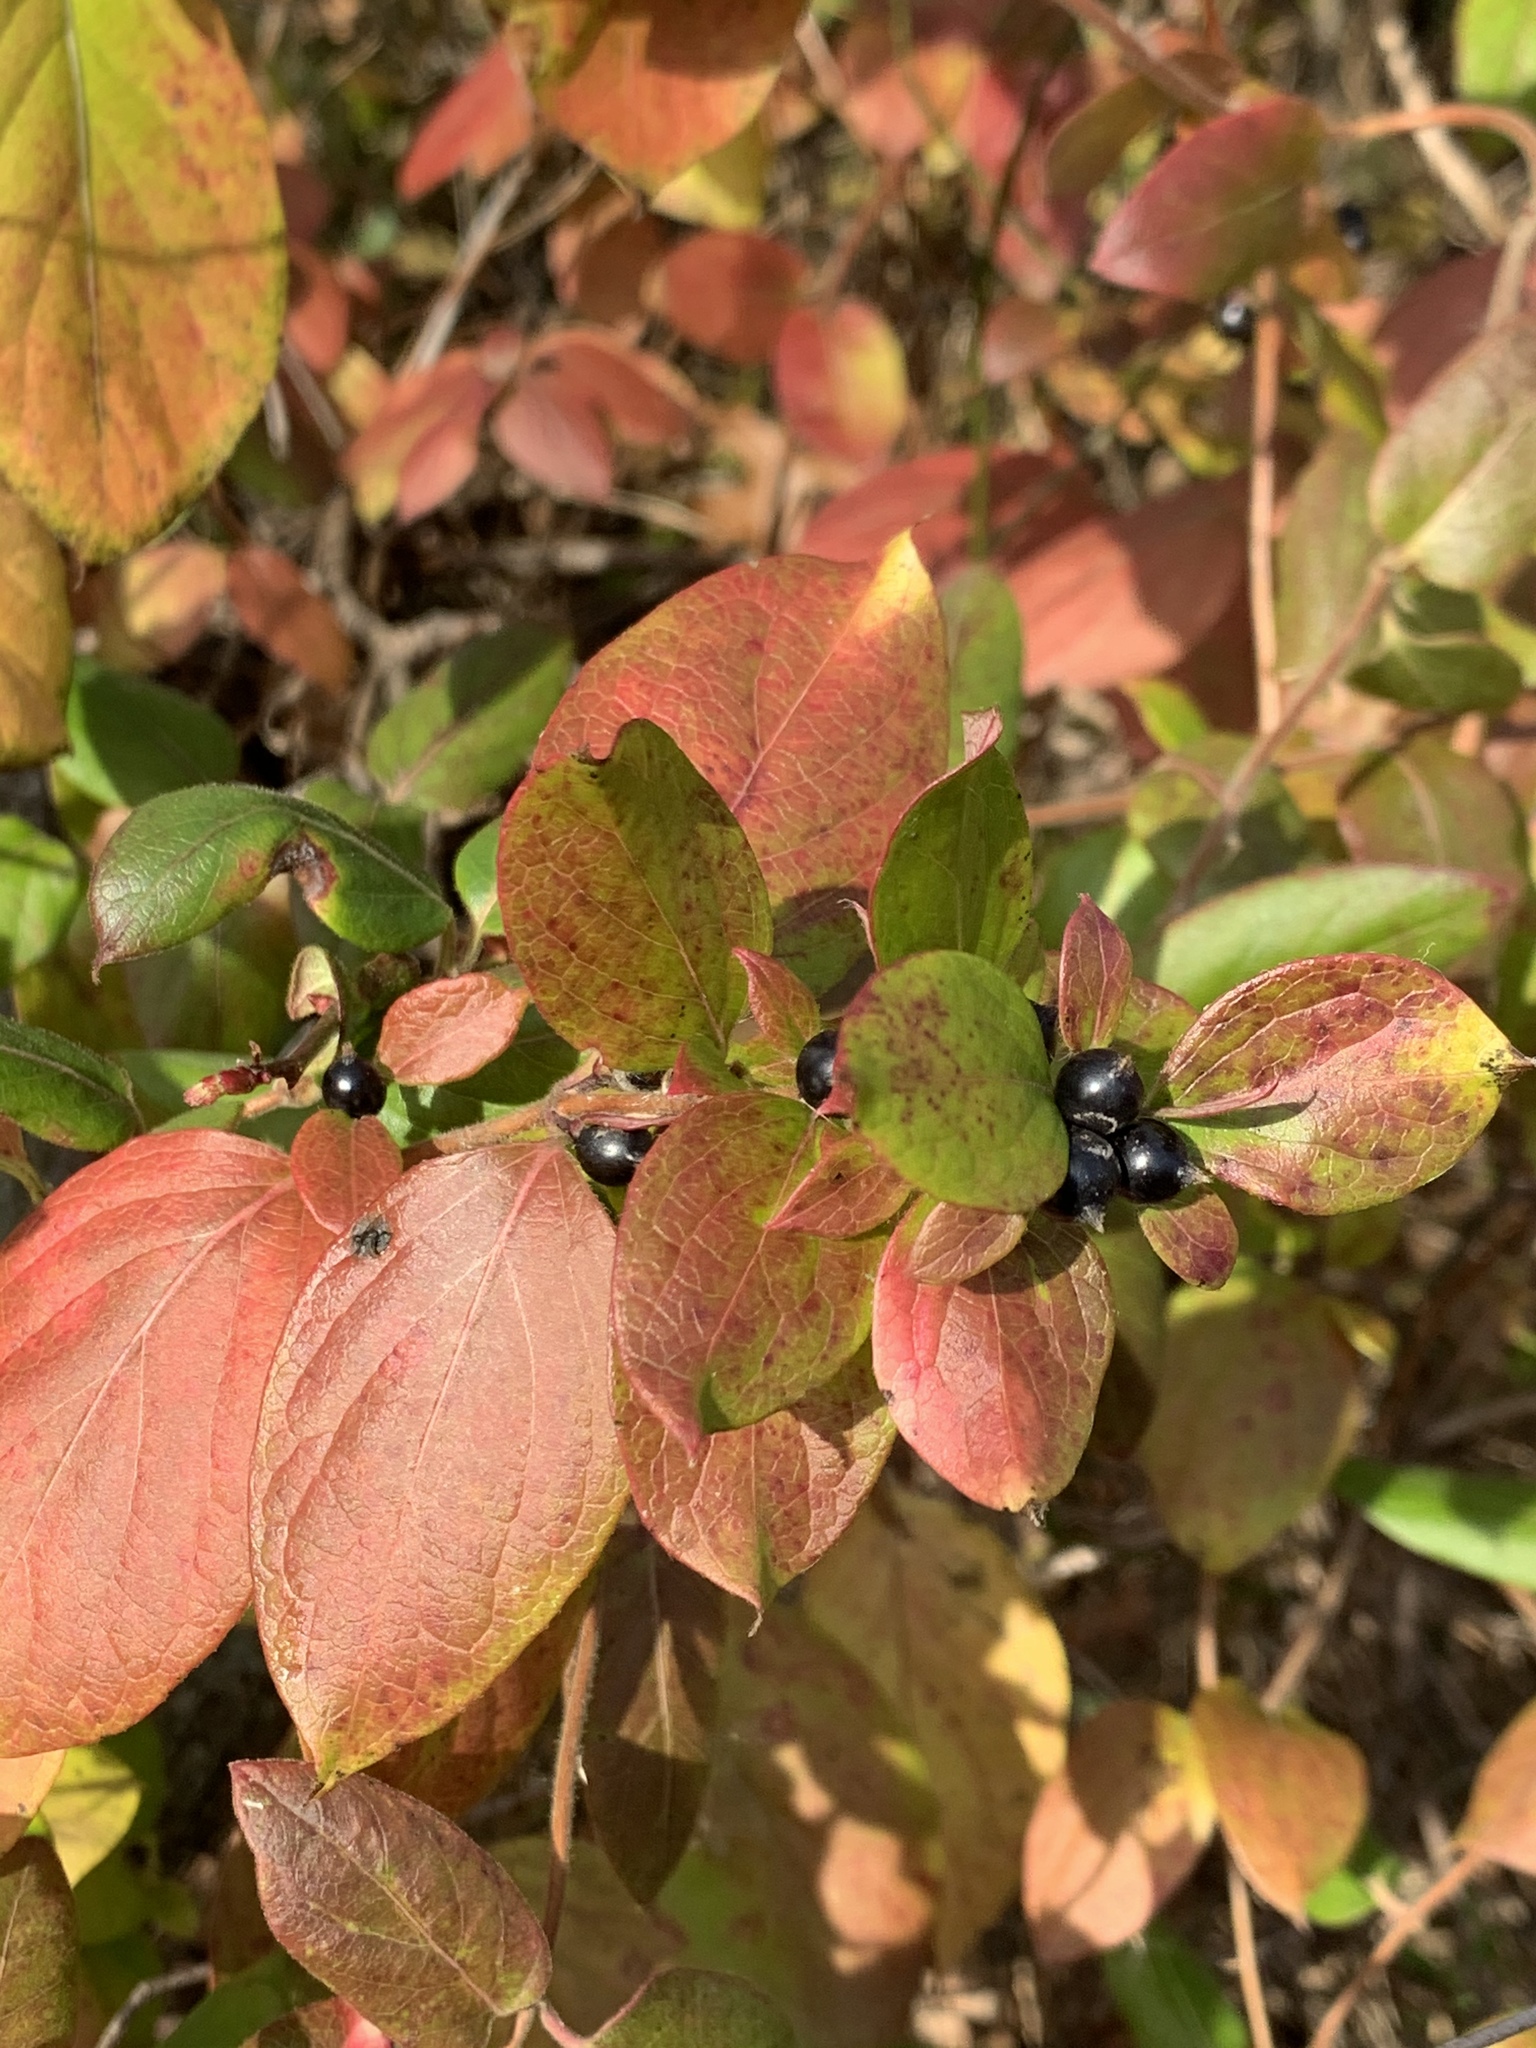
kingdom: Plantae
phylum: Tracheophyta
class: Magnoliopsida
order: Dipsacales
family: Caprifoliaceae
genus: Lonicera
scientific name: Lonicera japonica
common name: Japanese honeysuckle
